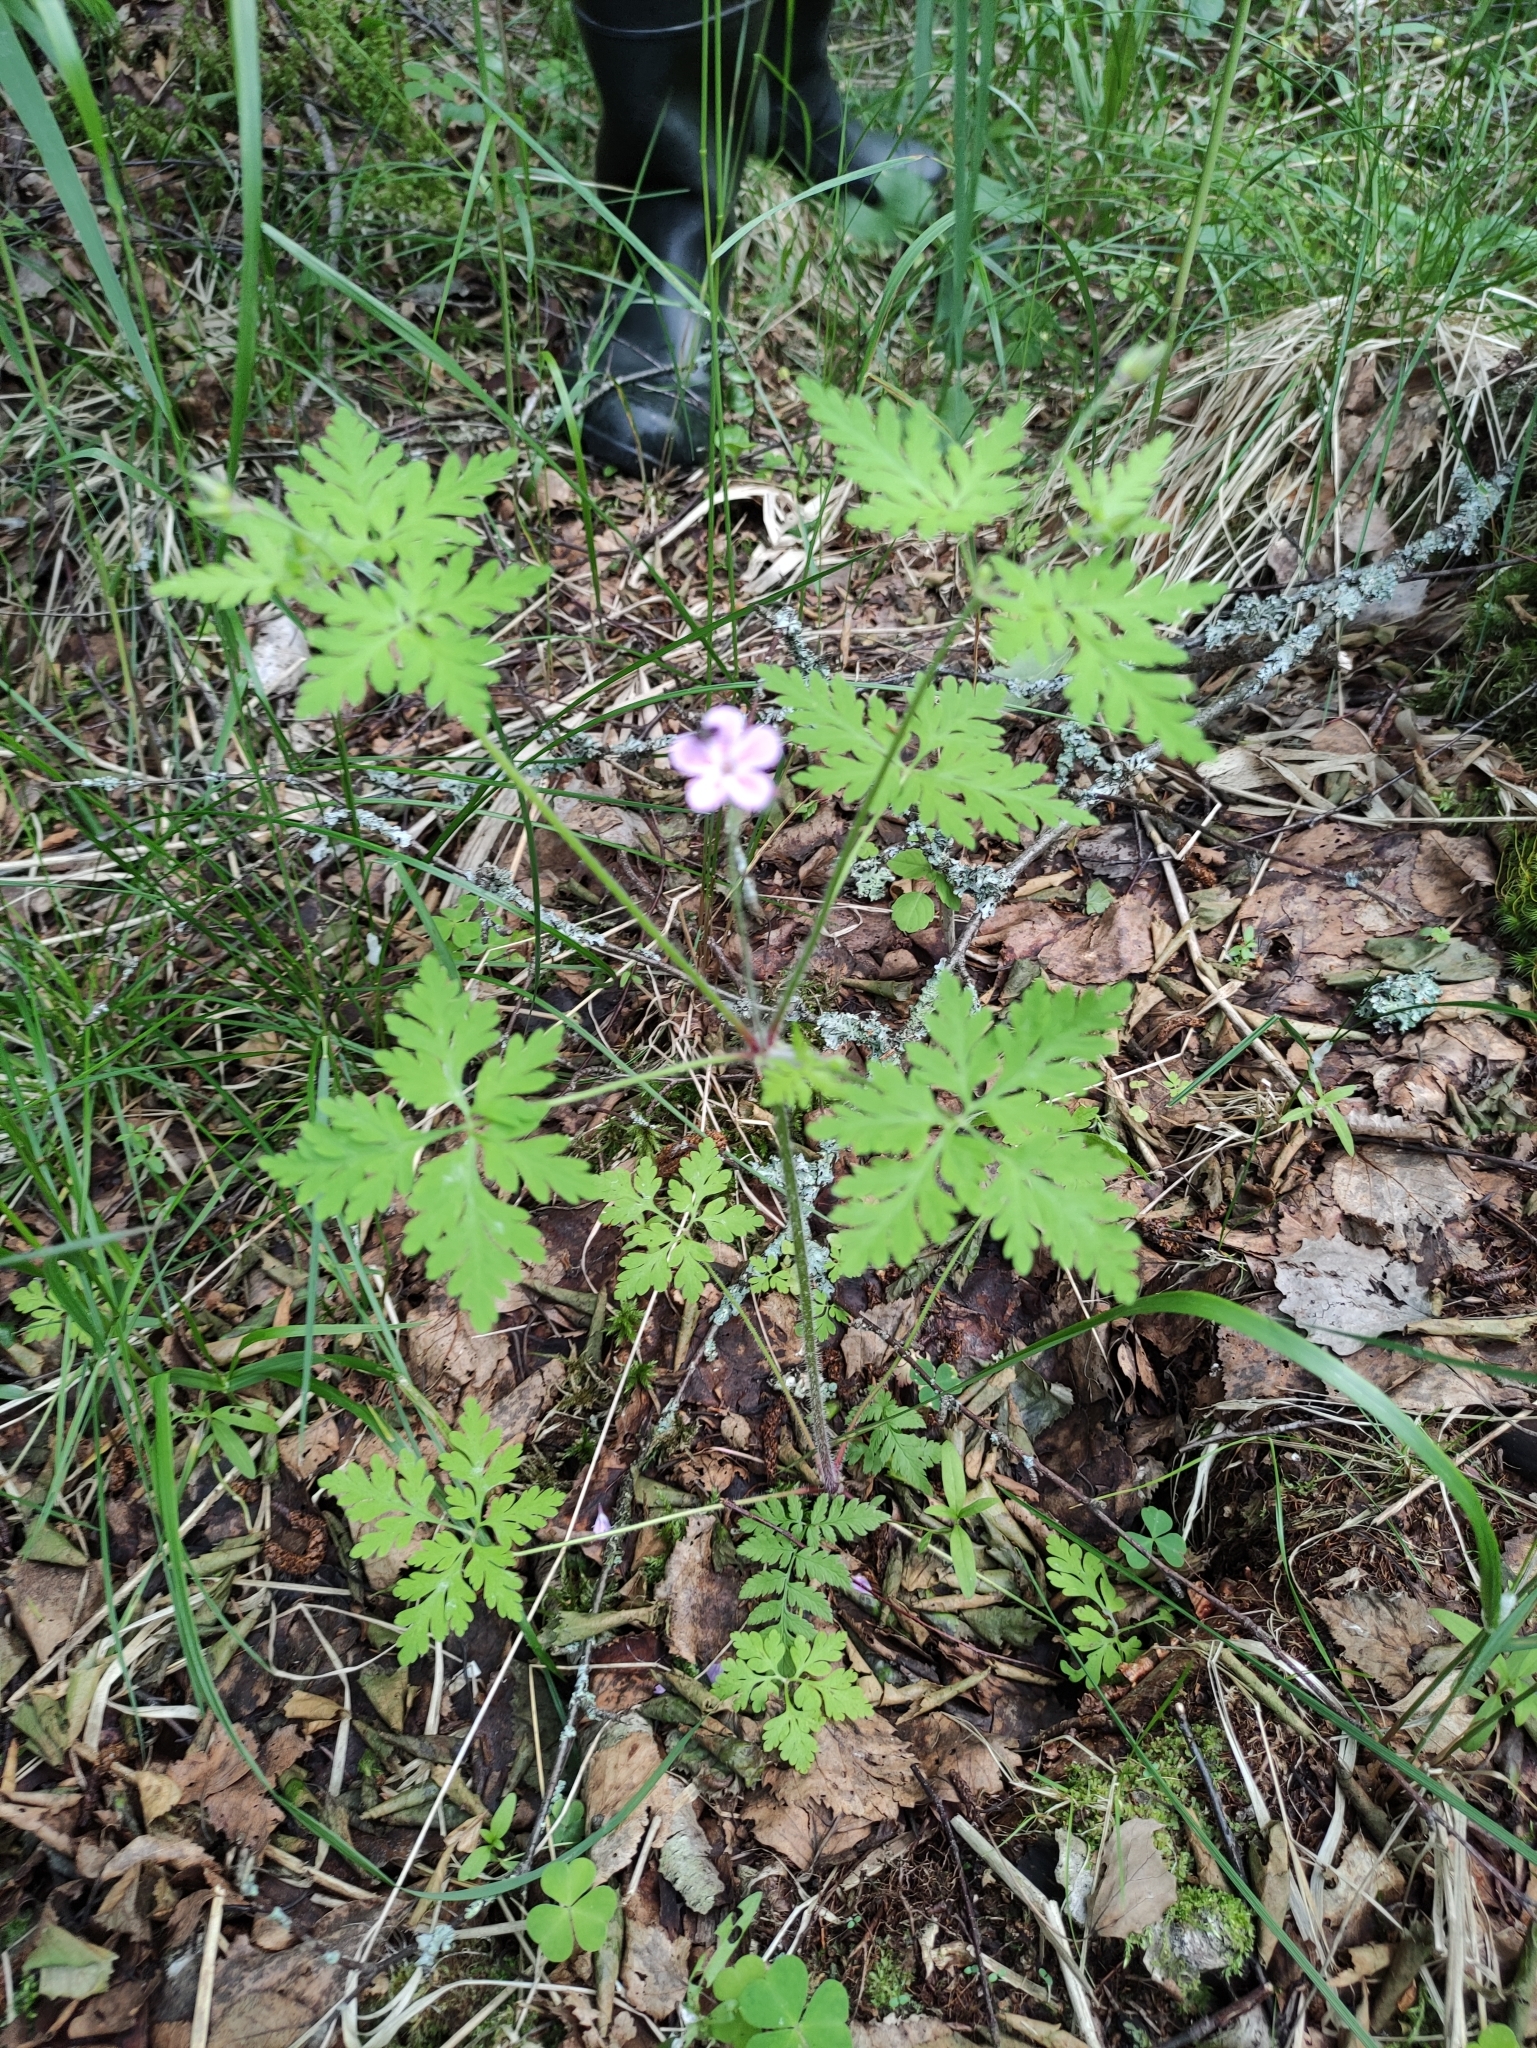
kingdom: Plantae
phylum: Tracheophyta
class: Magnoliopsida
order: Geraniales
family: Geraniaceae
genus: Geranium
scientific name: Geranium robertianum
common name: Herb-robert
